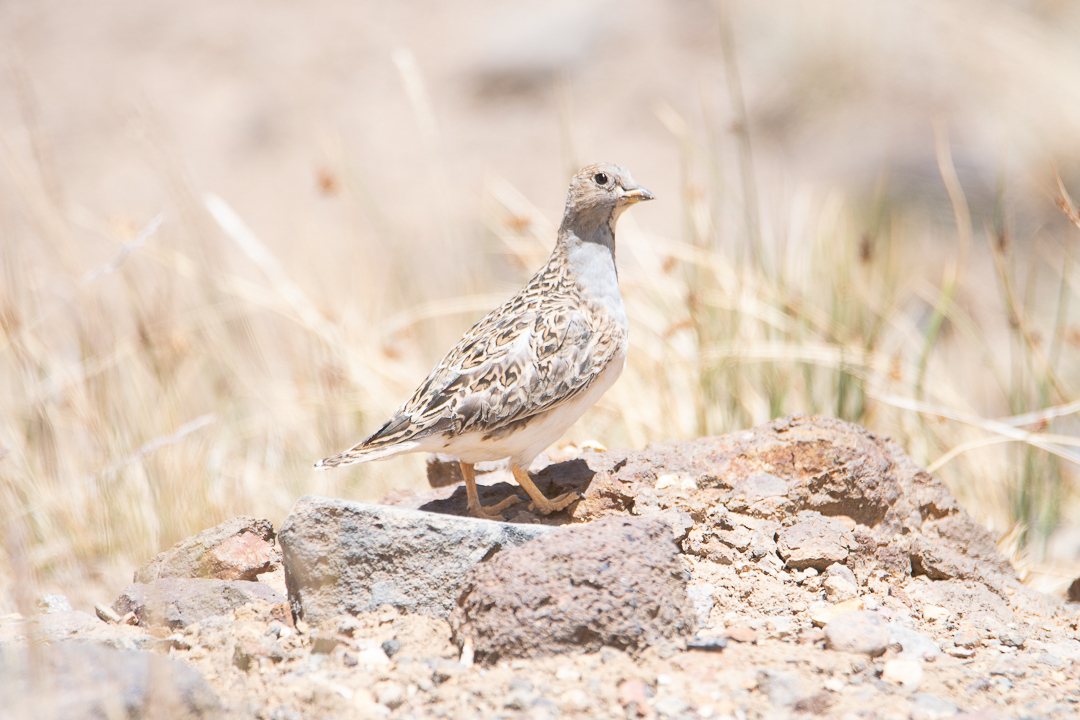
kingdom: Animalia
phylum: Chordata
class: Aves
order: Charadriiformes
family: Thinocoridae
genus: Thinocorus
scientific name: Thinocorus orbignyianus
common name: Grey-breasted seedsnipe
